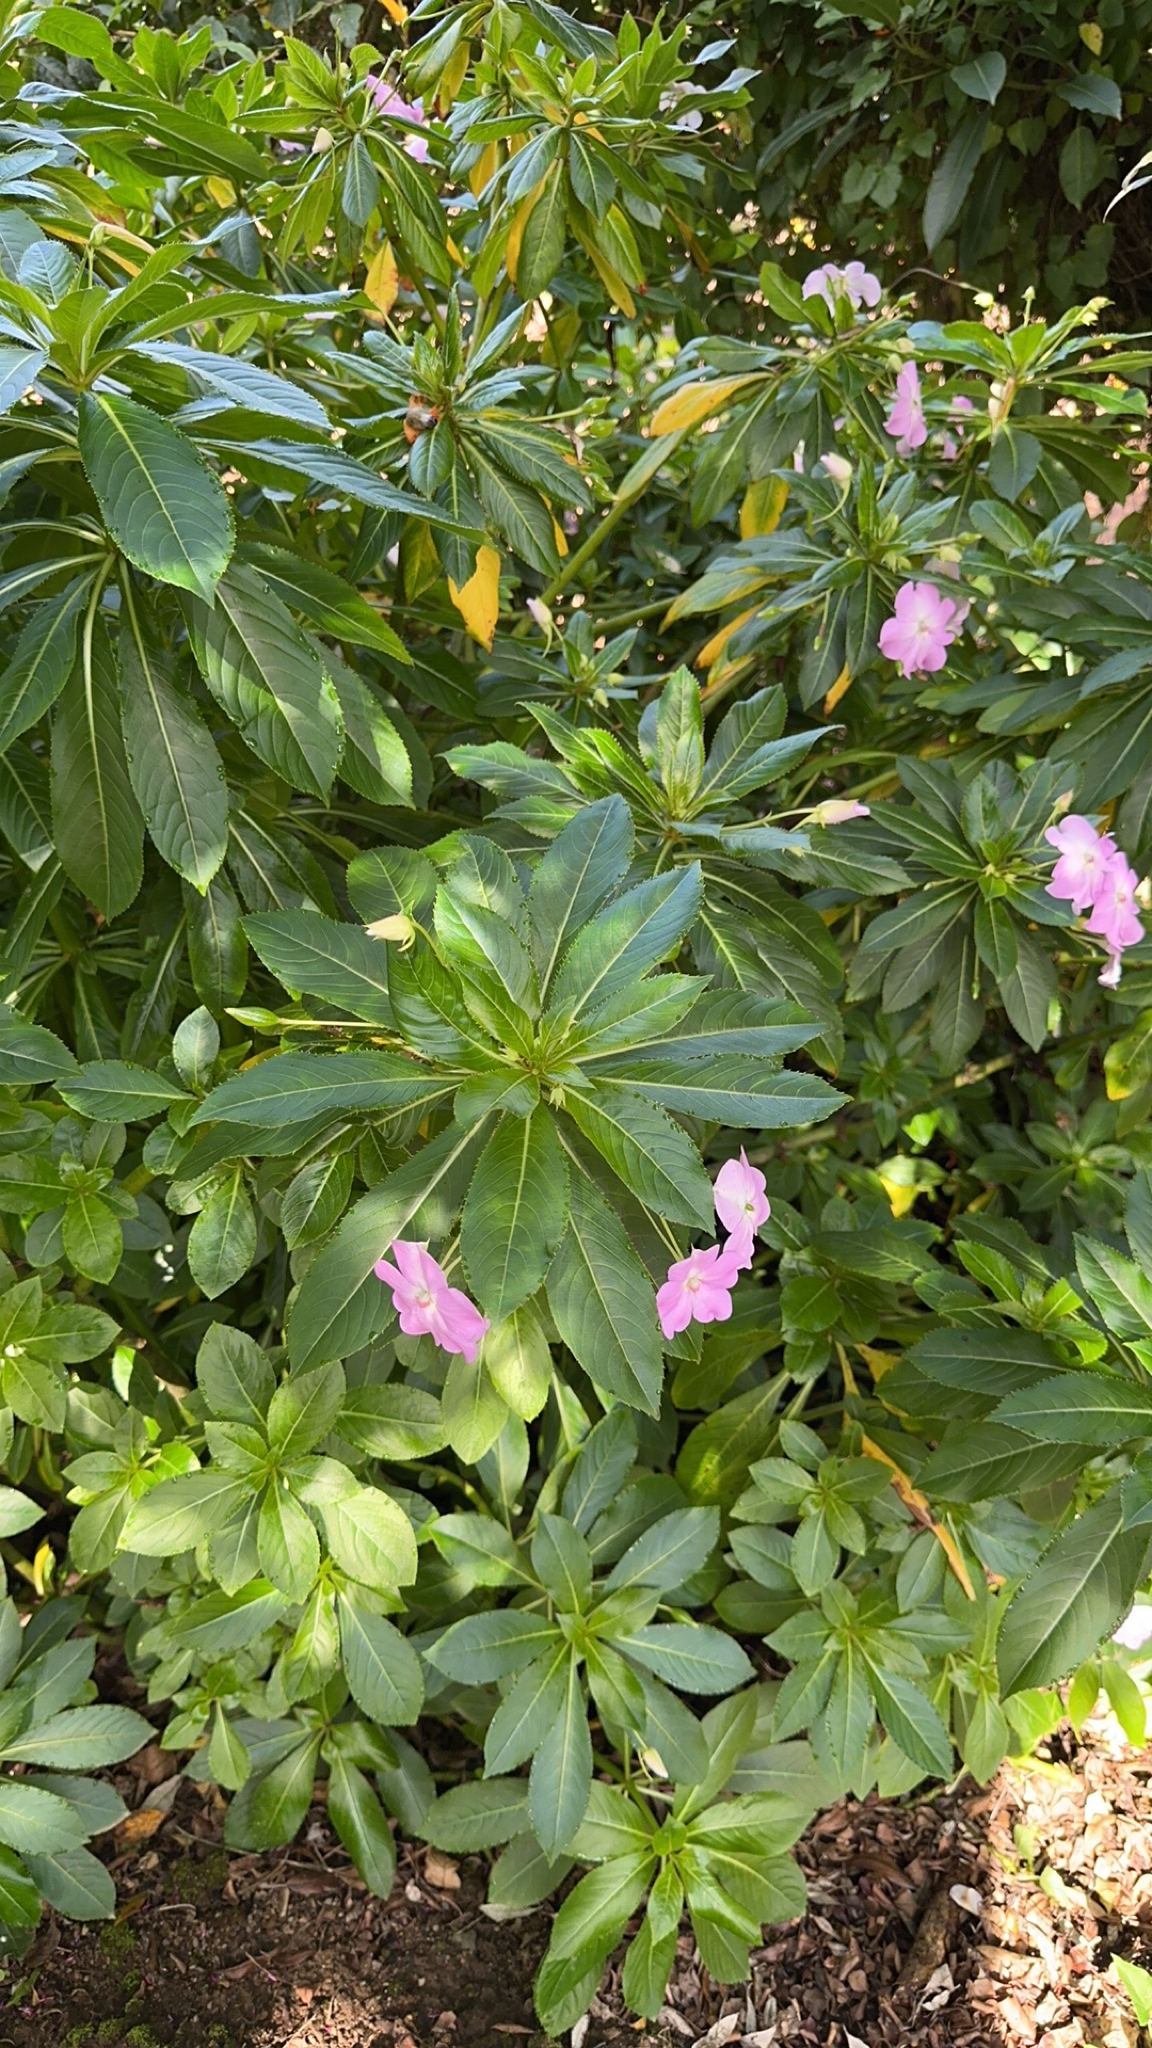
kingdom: Plantae
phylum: Tracheophyta
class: Magnoliopsida
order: Ericales
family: Balsaminaceae
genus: Impatiens
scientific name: Impatiens sodenii
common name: Oliver's touch-me-not
